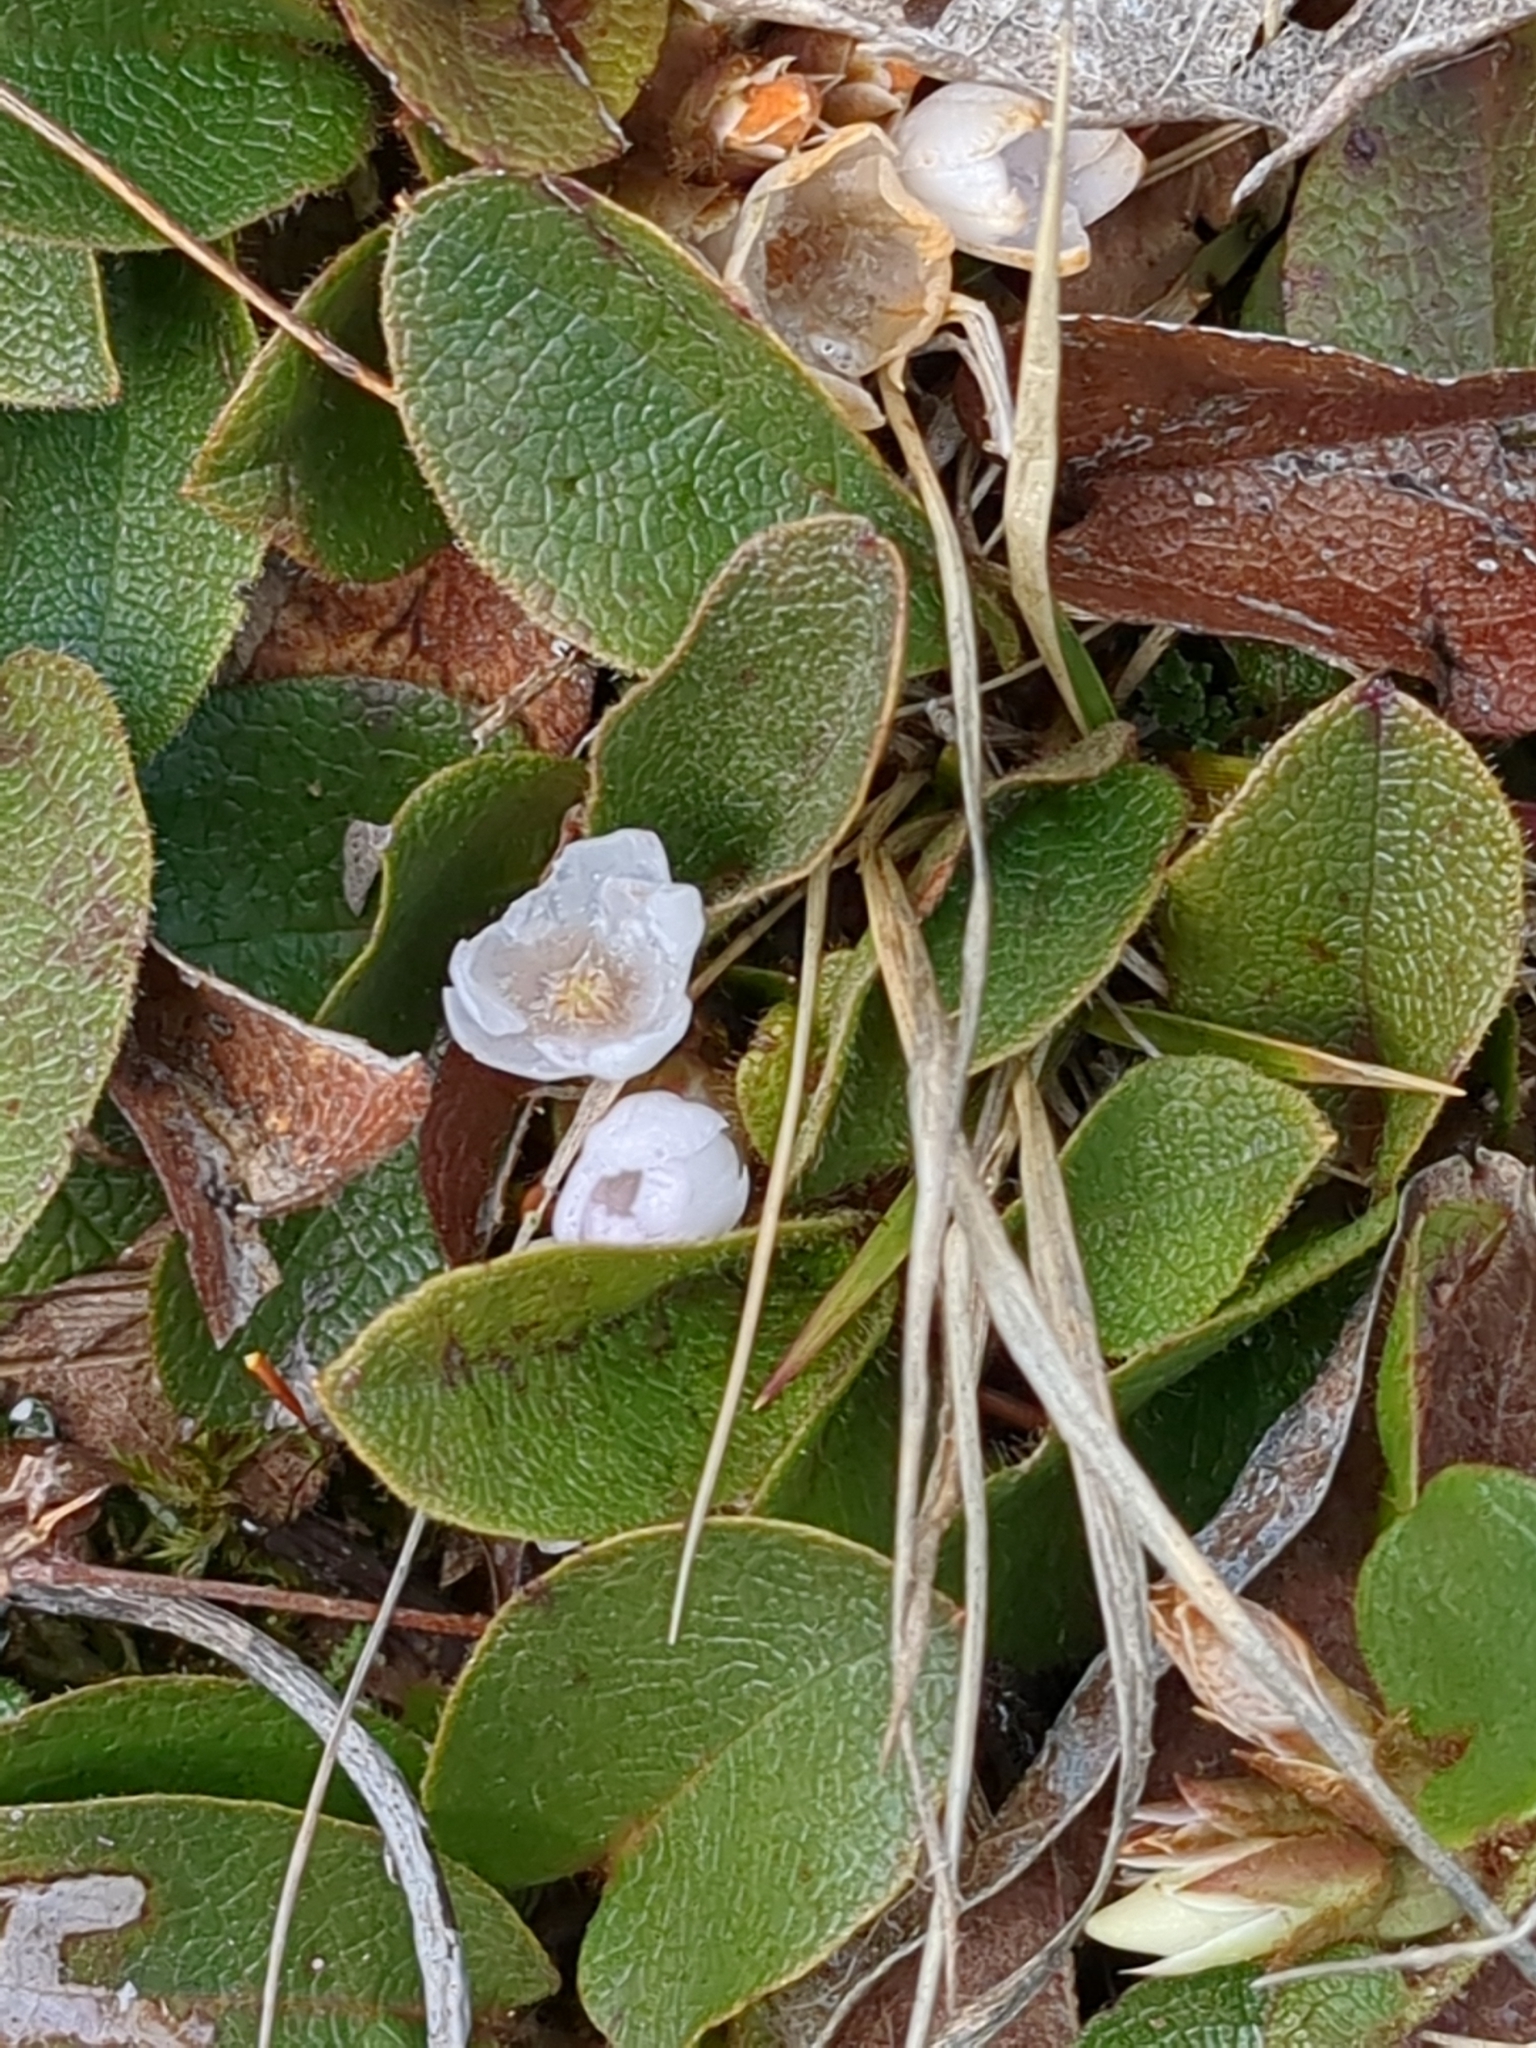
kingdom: Plantae
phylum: Tracheophyta
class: Magnoliopsida
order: Ericales
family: Ericaceae
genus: Epigaea
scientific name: Epigaea repens
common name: Gravelroot
